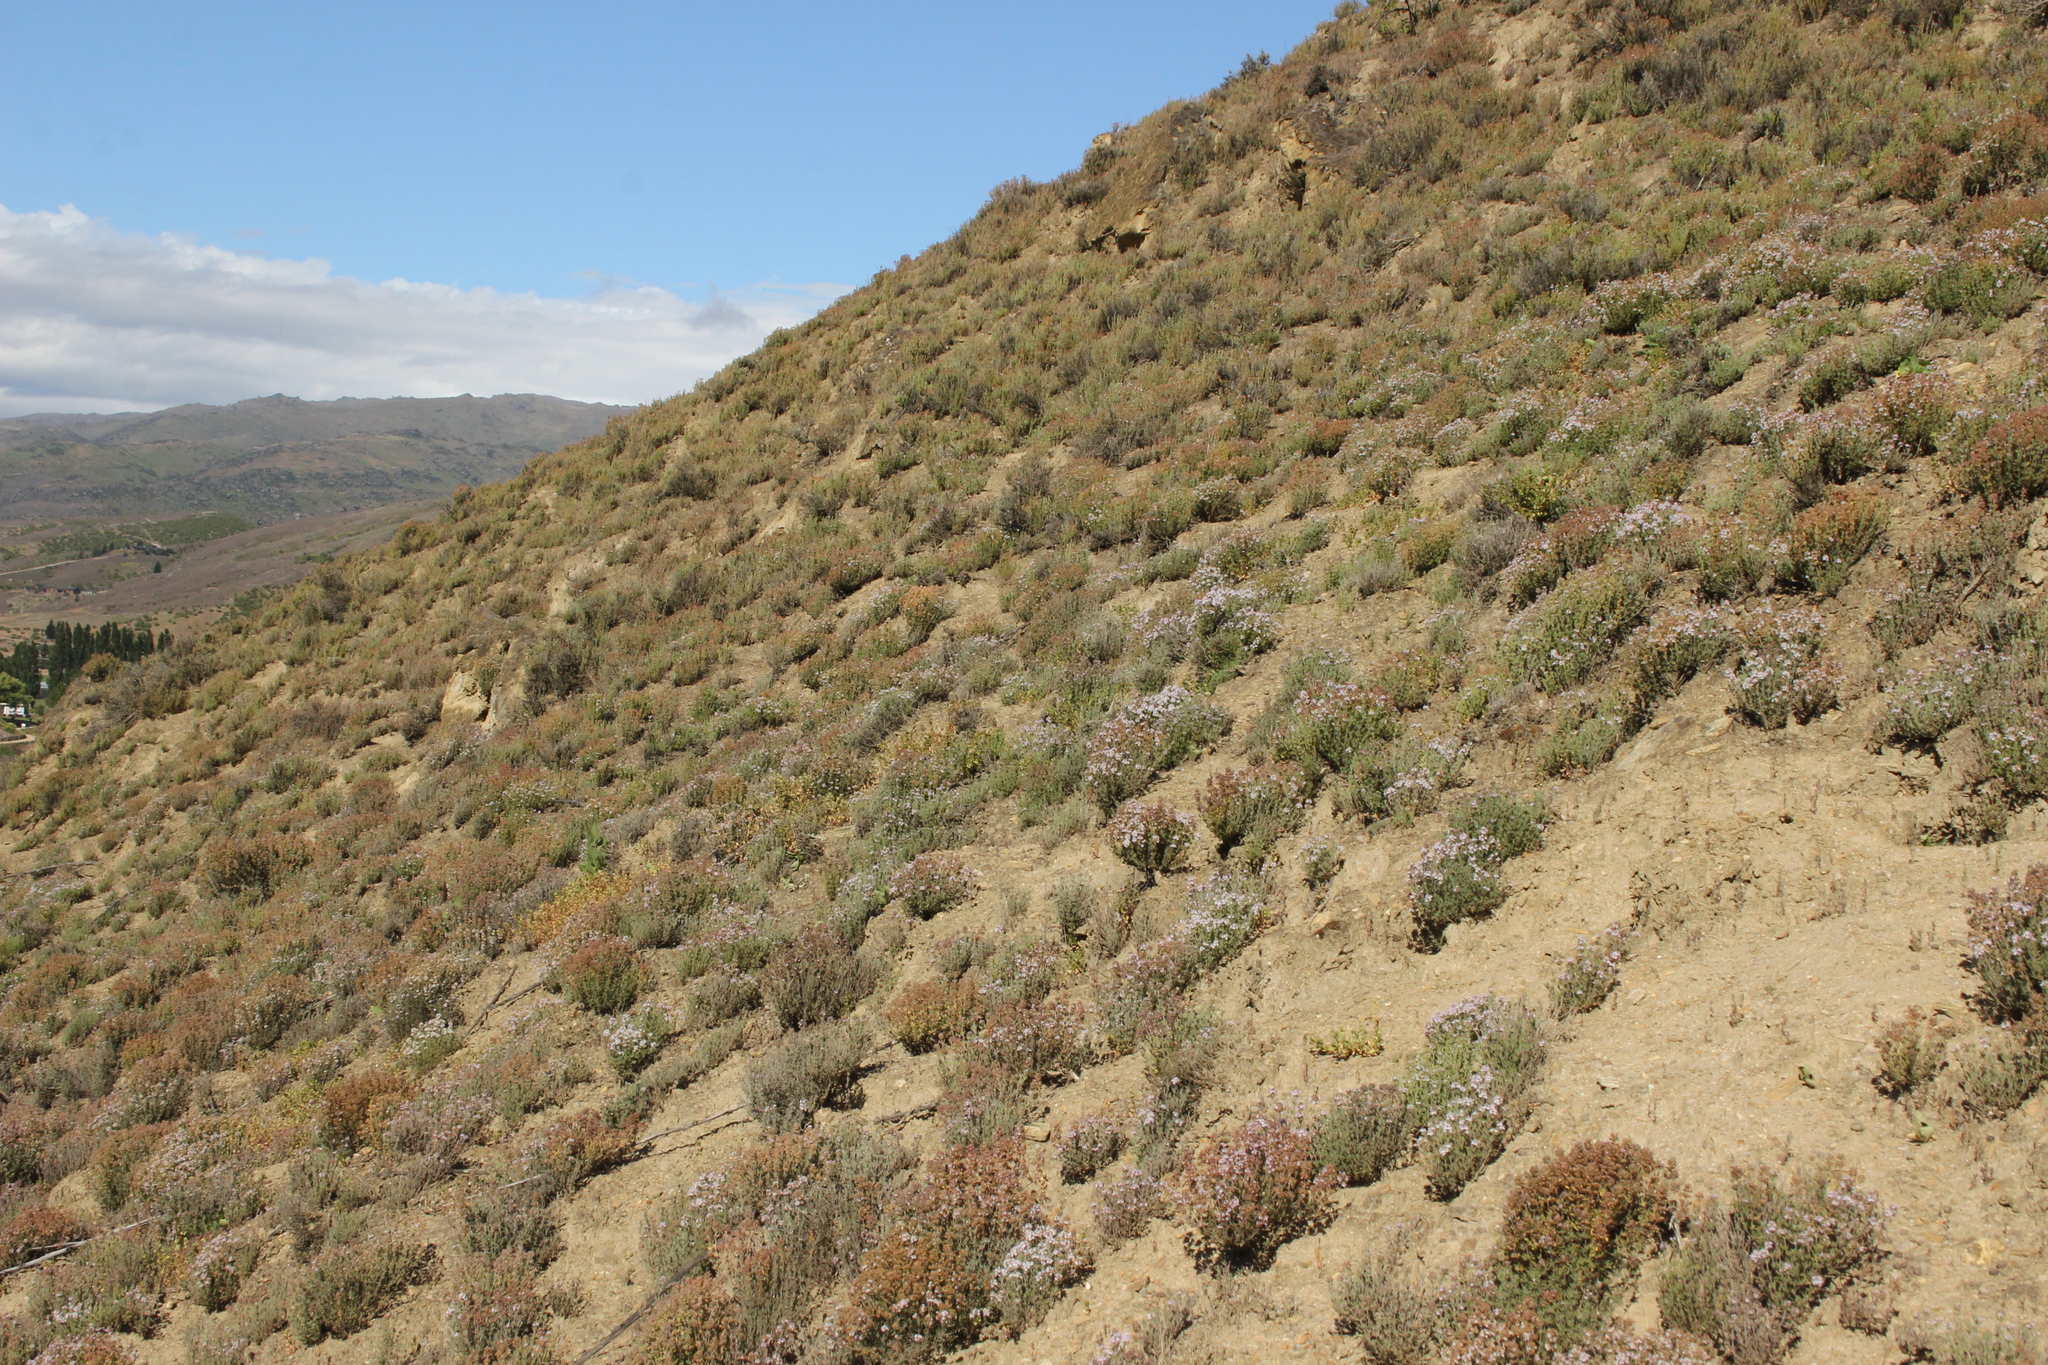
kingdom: Plantae
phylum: Tracheophyta
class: Magnoliopsida
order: Lamiales
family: Lamiaceae
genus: Thymus
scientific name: Thymus vulgaris
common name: Garden thyme
